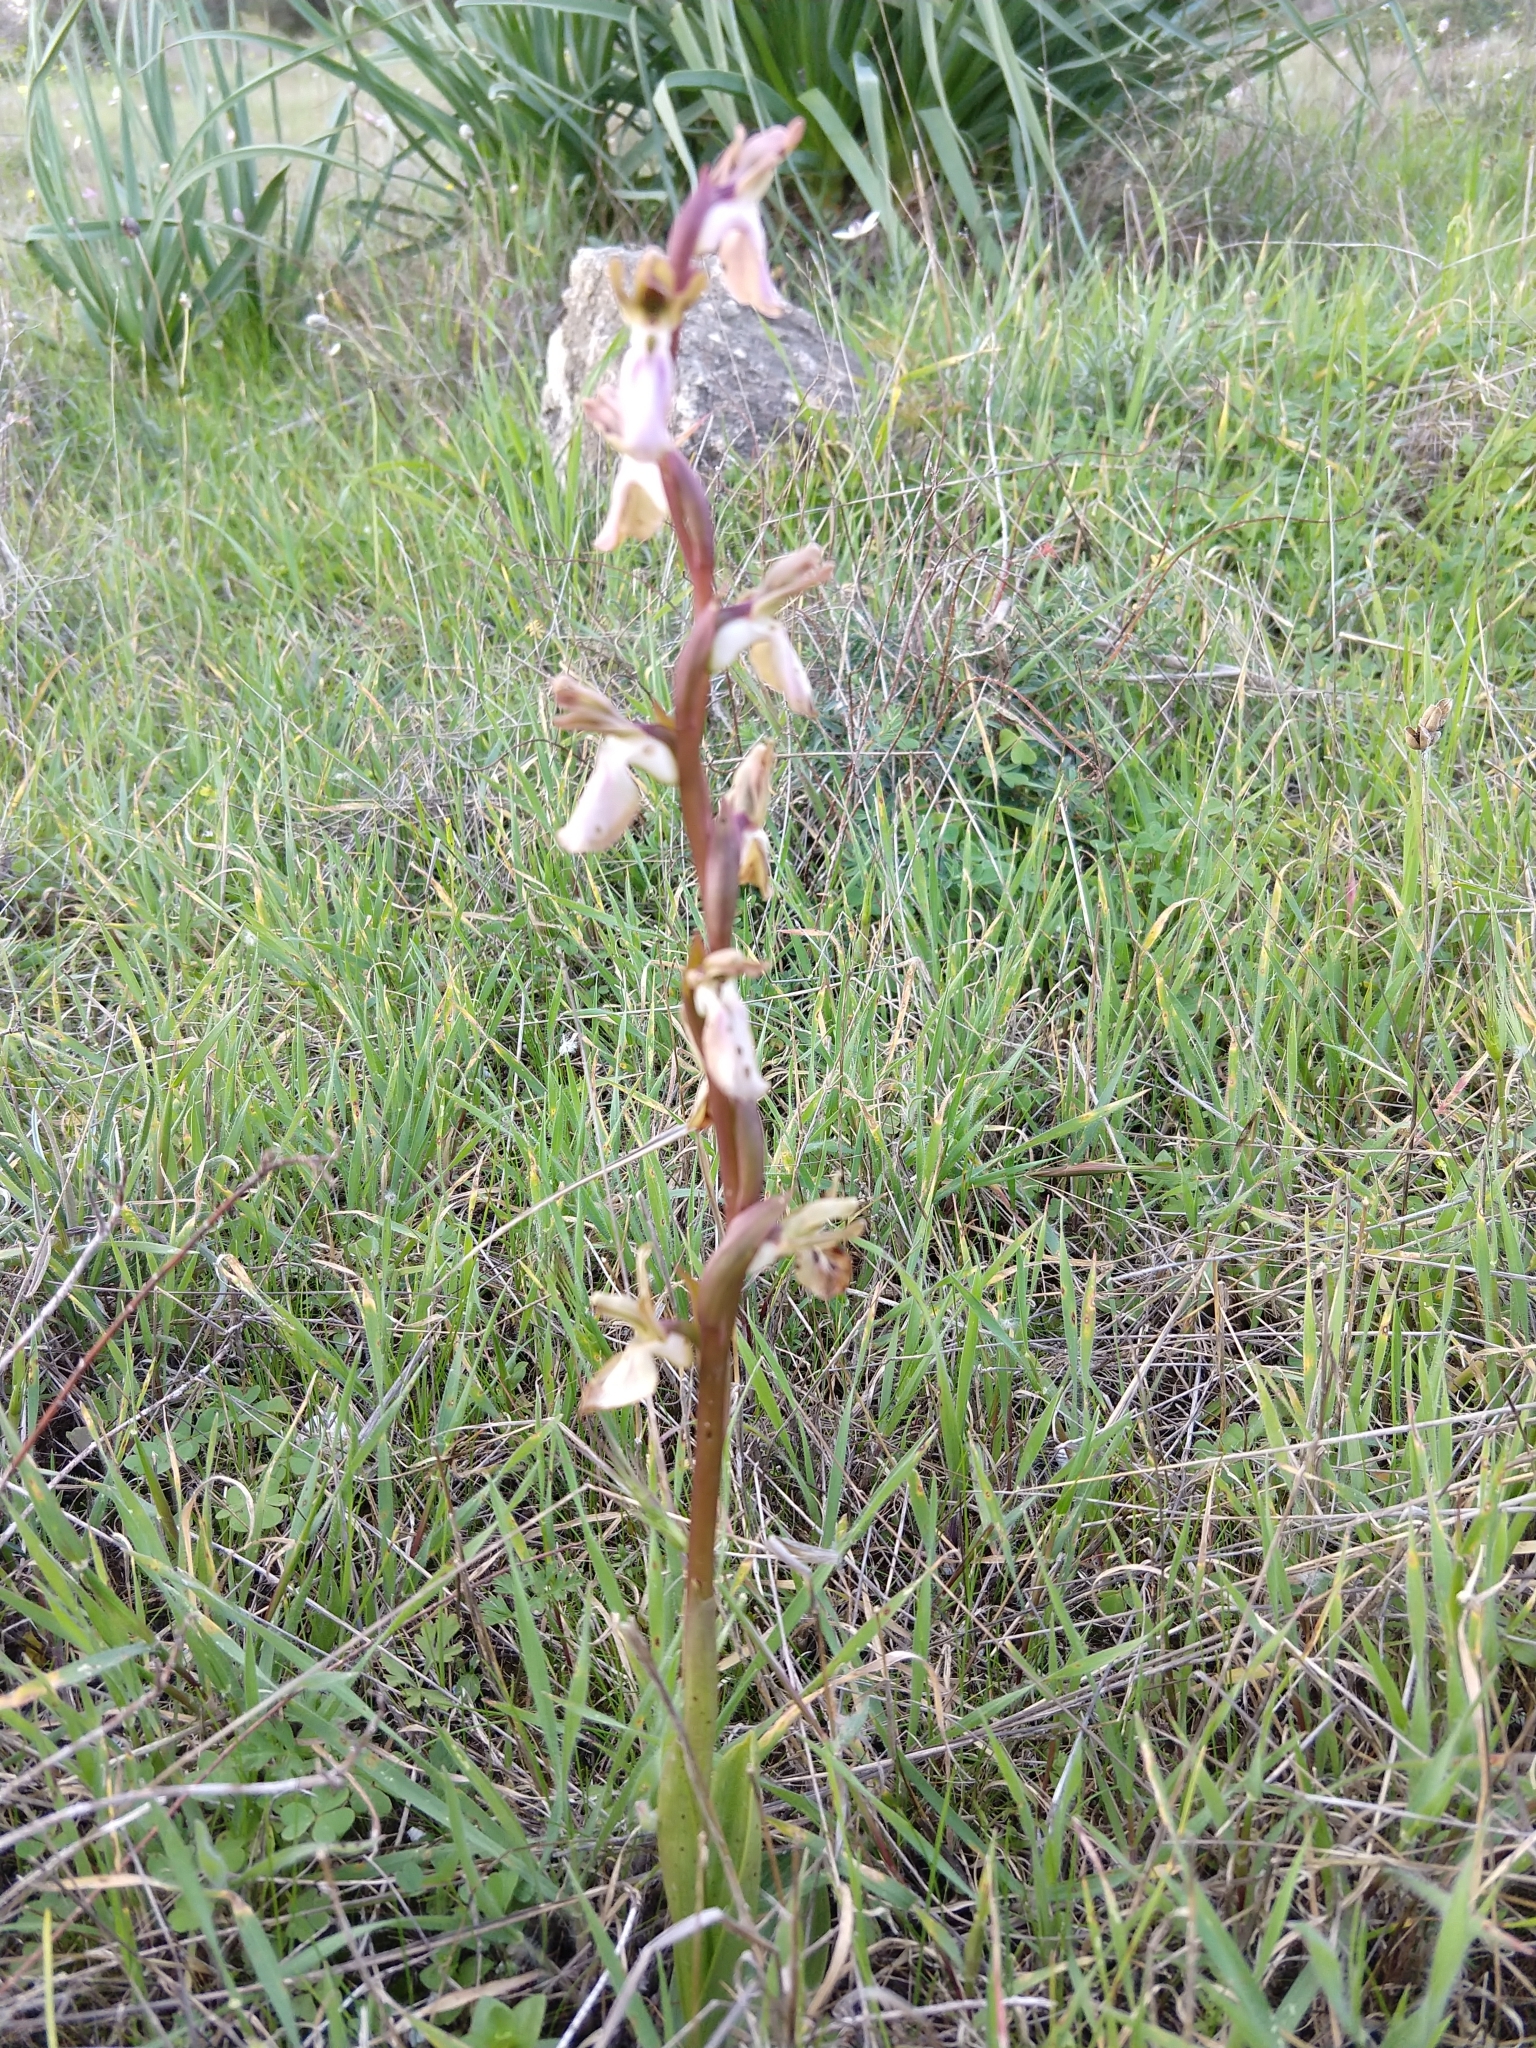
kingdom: Plantae
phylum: Tracheophyta
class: Liliopsida
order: Asparagales
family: Orchidaceae
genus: Anacamptis
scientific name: Anacamptis collina
